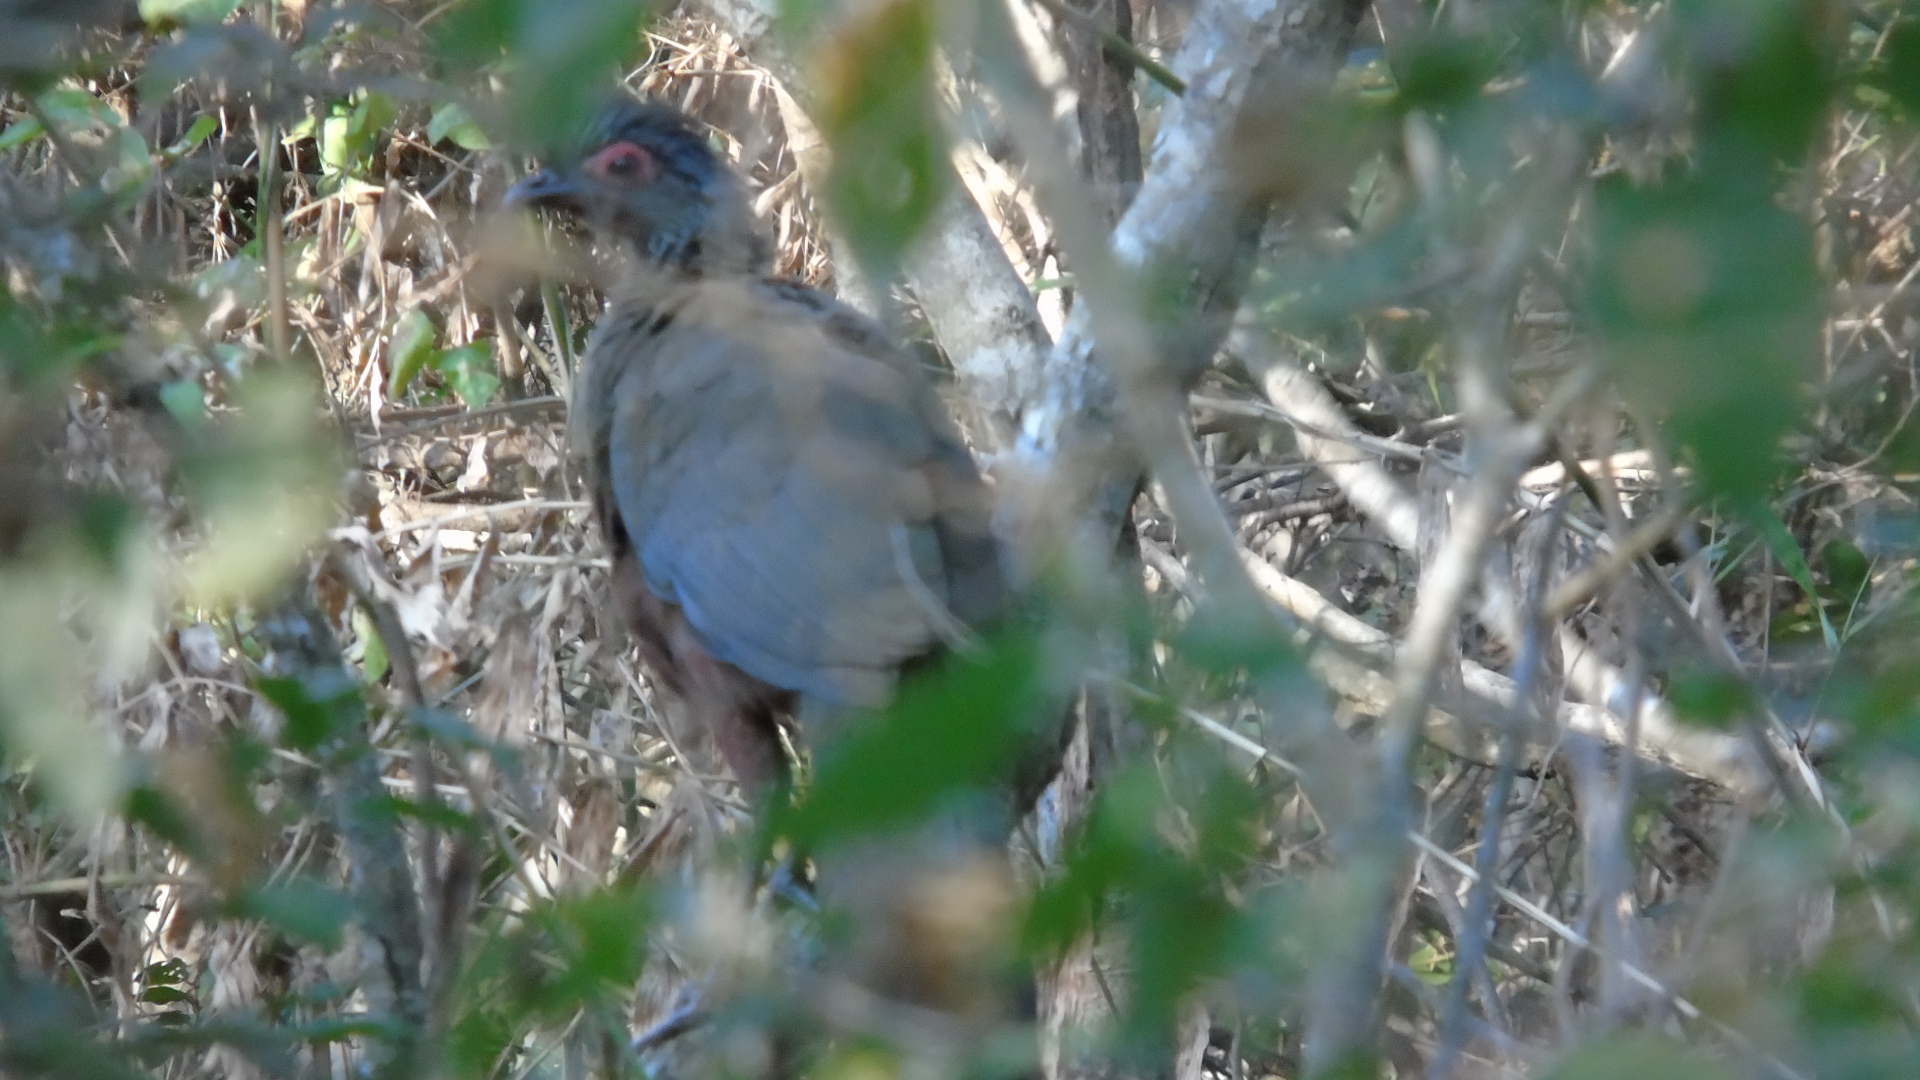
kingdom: Animalia
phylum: Chordata
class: Aves
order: Galliformes
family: Cracidae
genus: Ortalis
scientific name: Ortalis wagleri
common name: Rufous-bellied chachalaca
